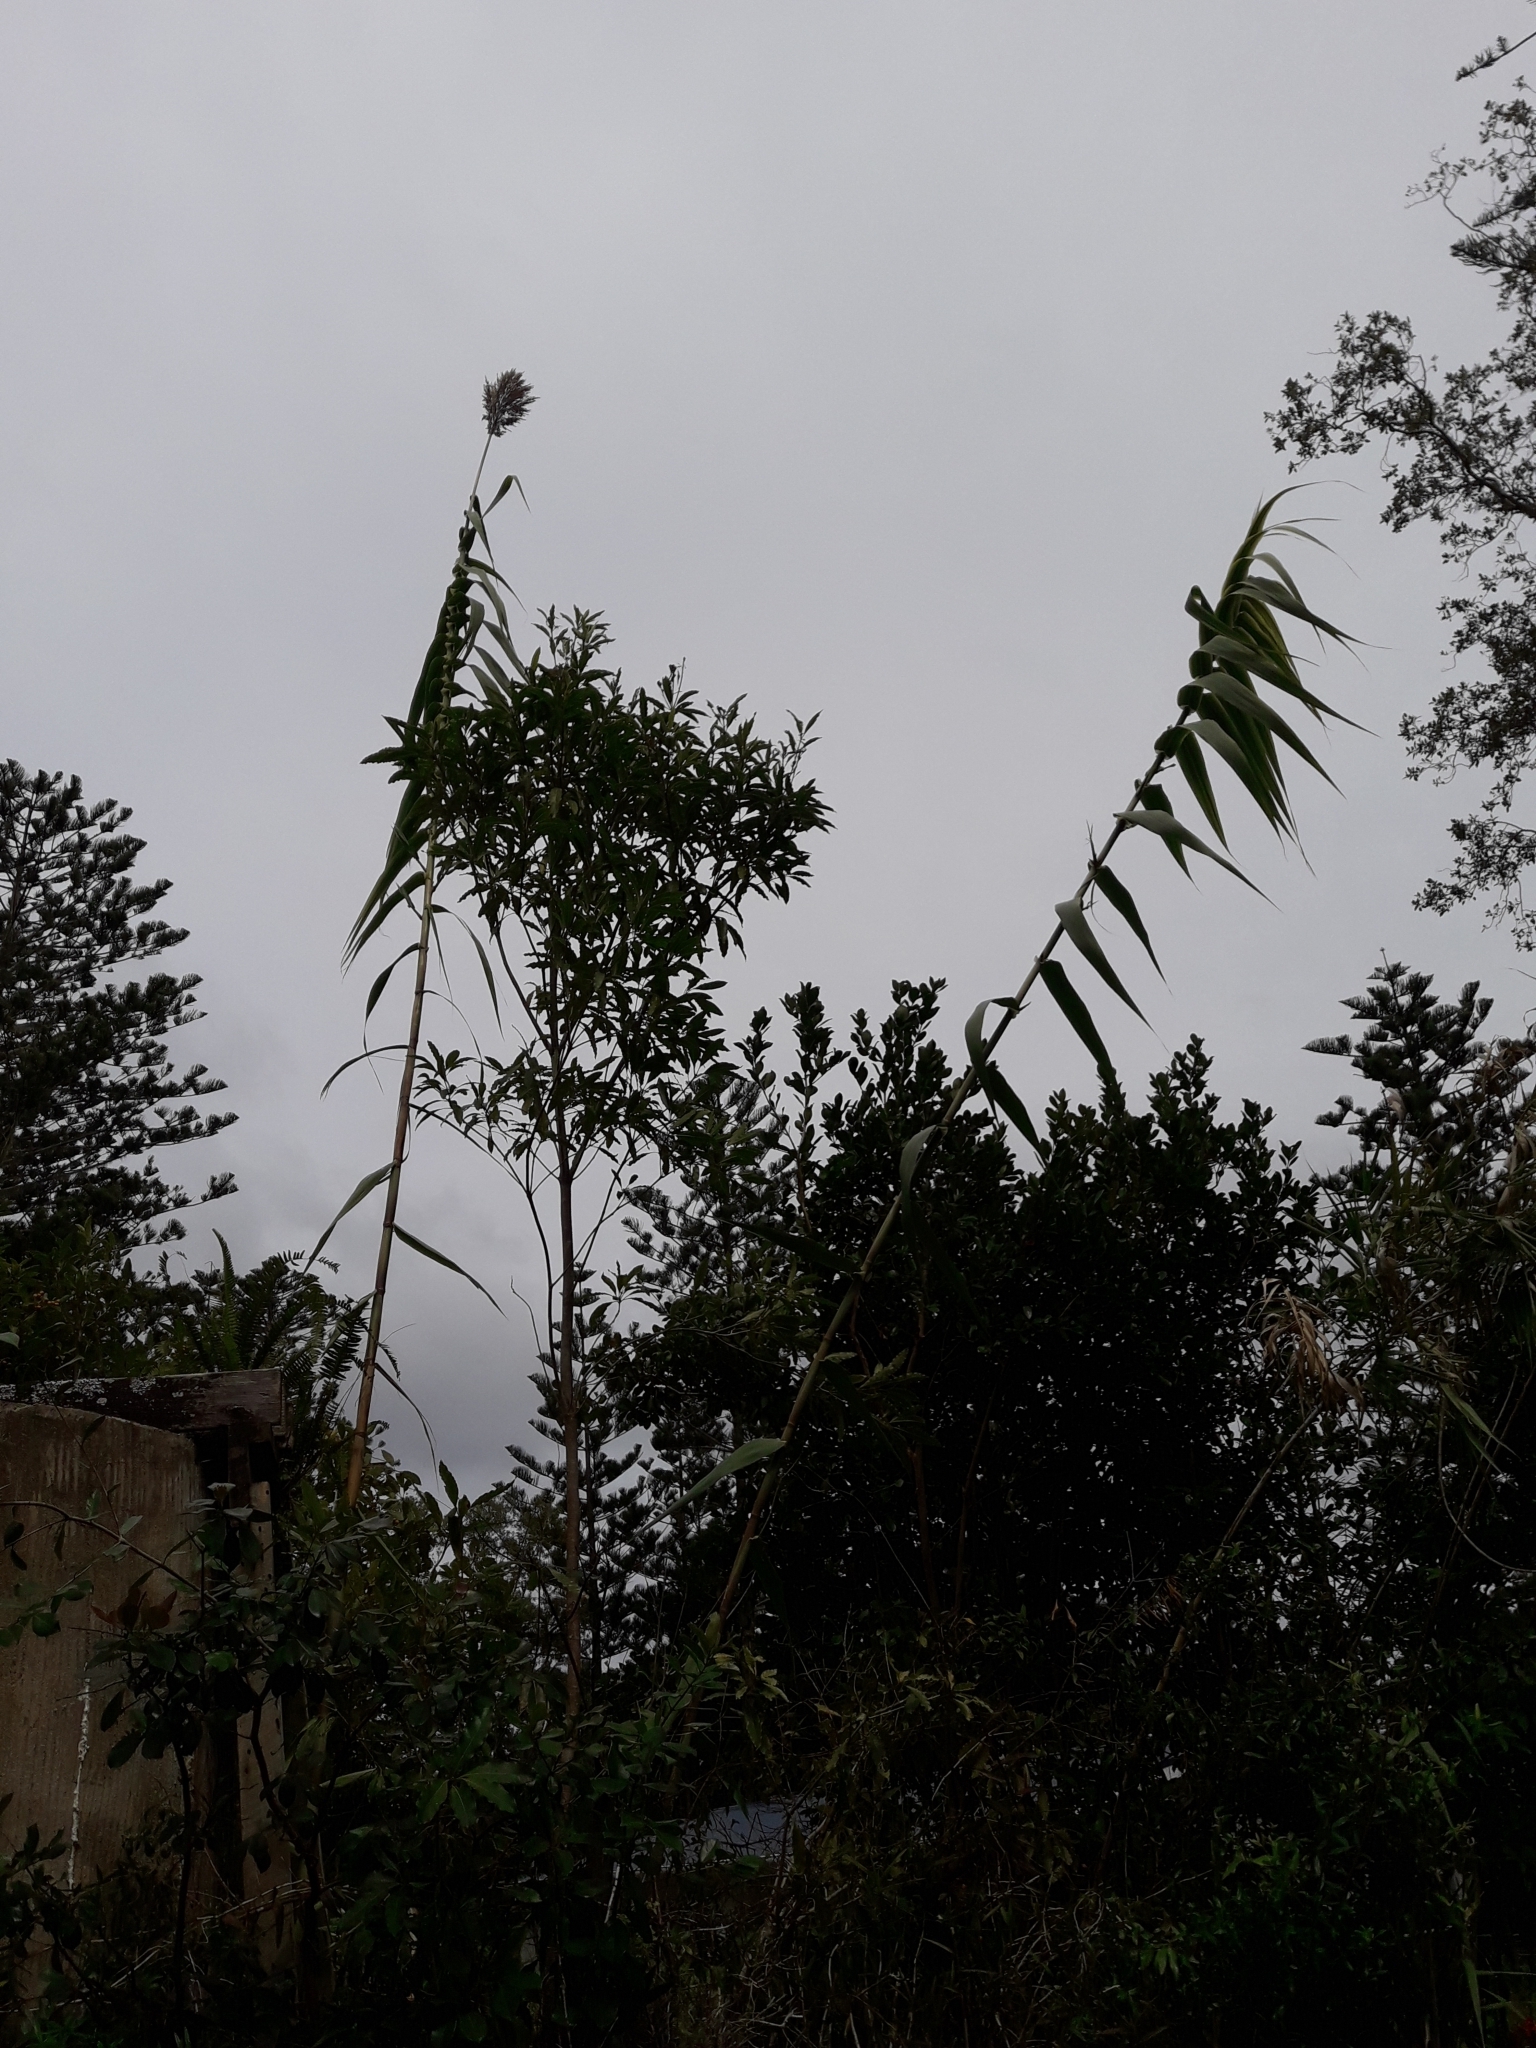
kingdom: Plantae
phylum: Tracheophyta
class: Liliopsida
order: Poales
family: Poaceae
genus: Arundo
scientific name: Arundo donax
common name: Giant reed
